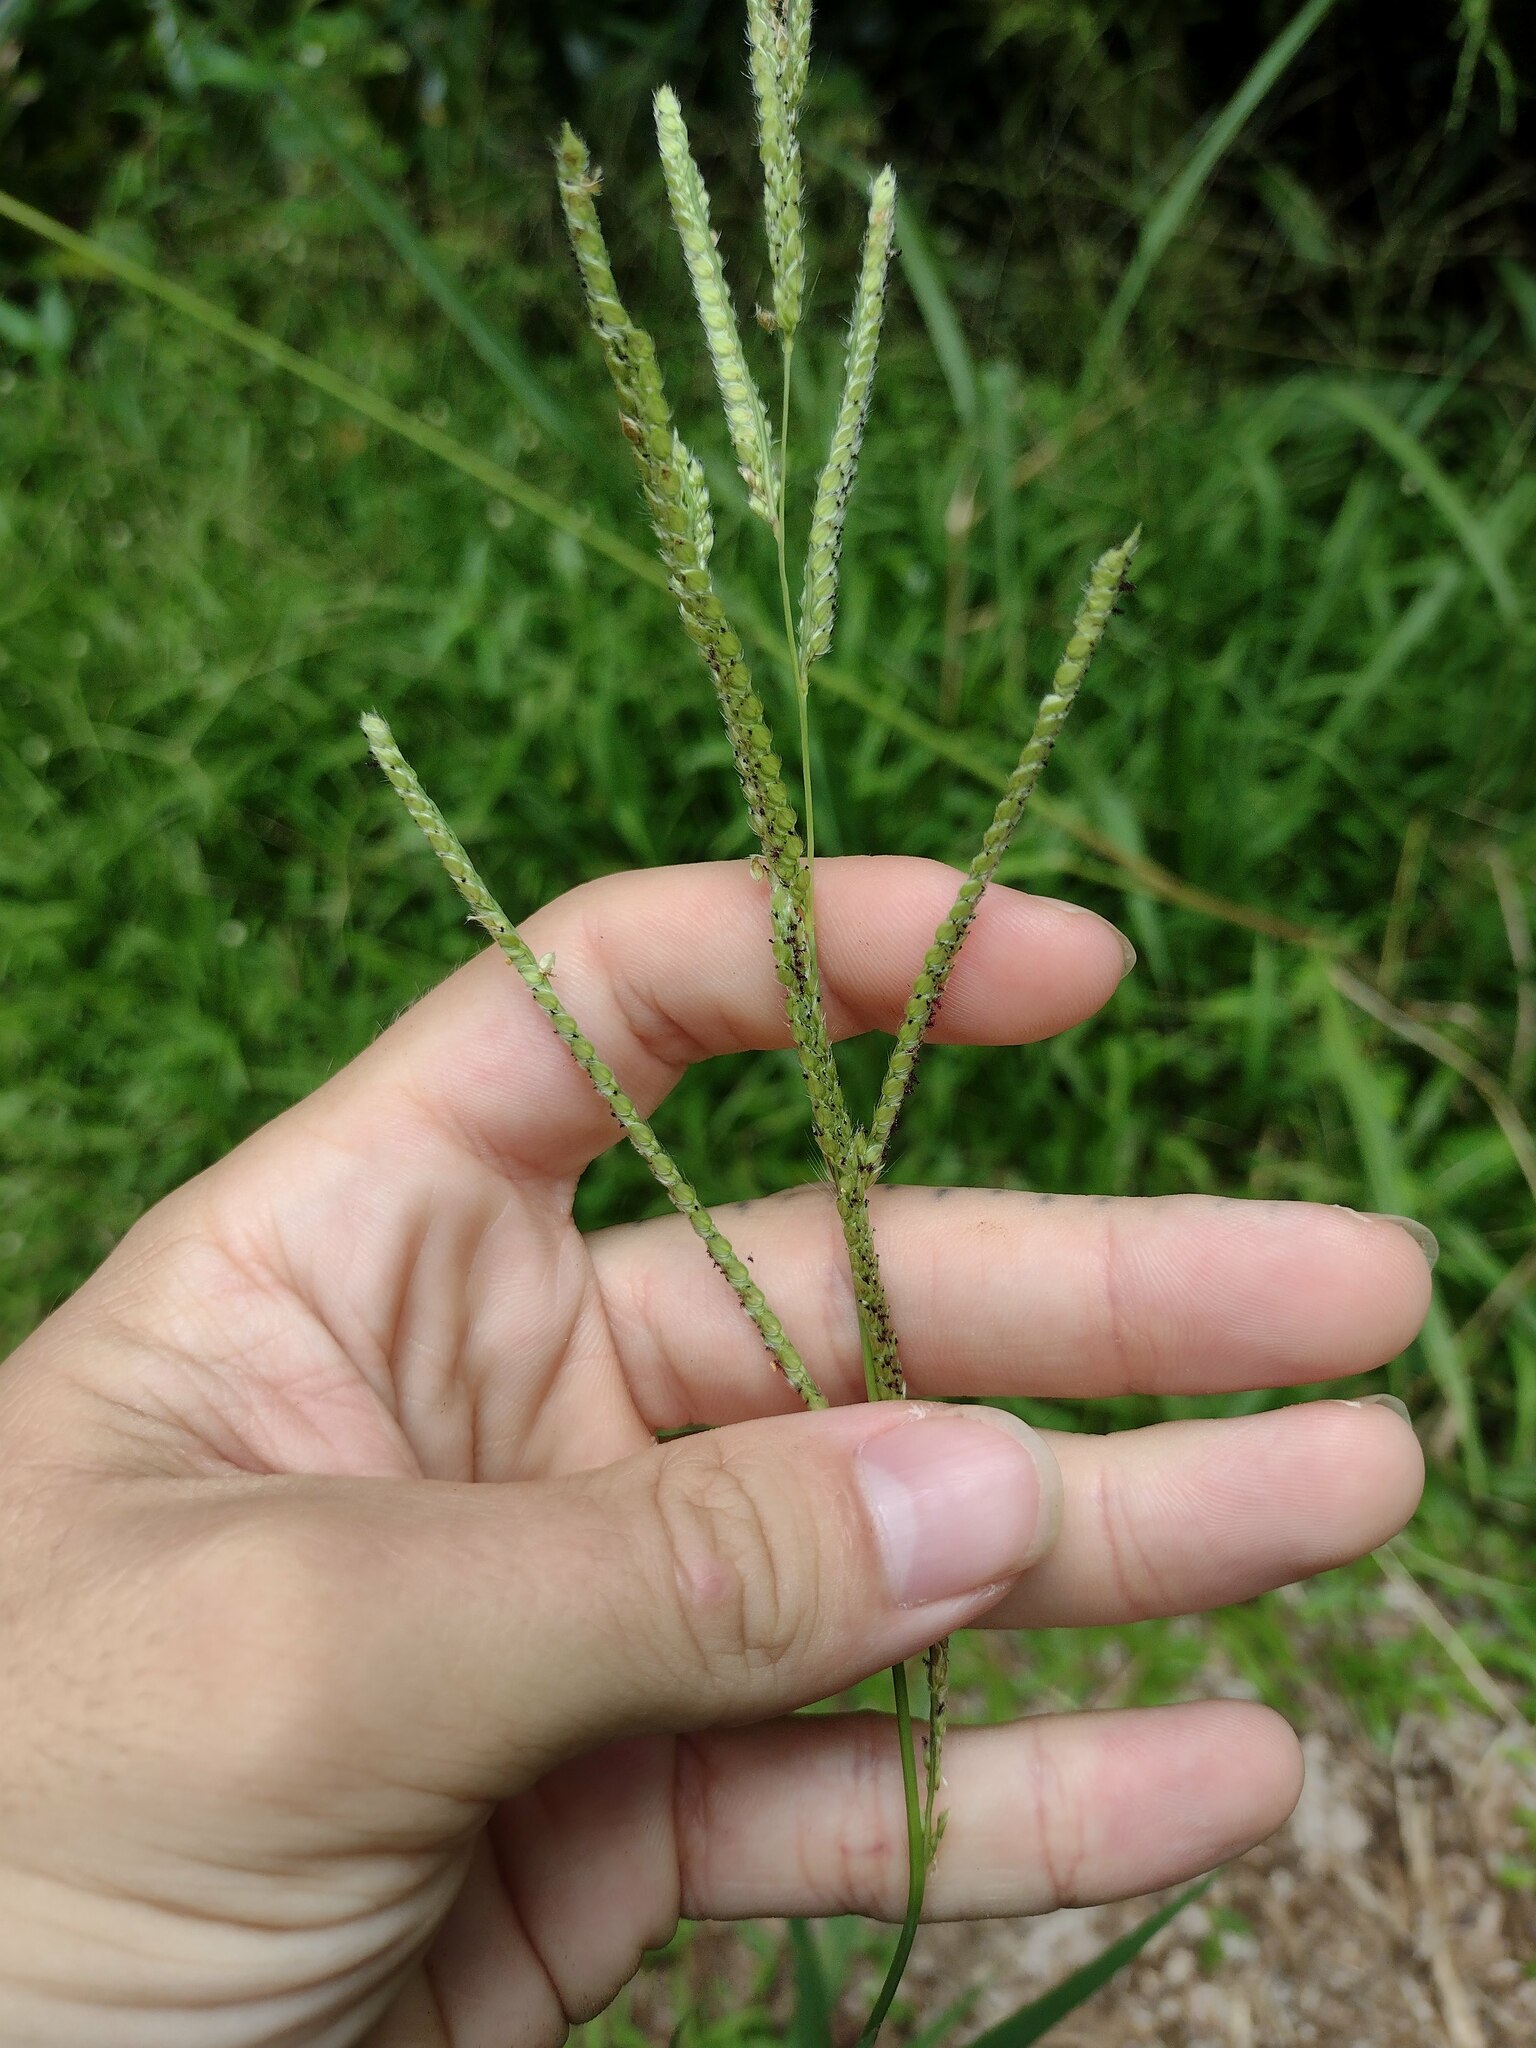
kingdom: Plantae
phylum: Tracheophyta
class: Liliopsida
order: Poales
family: Poaceae
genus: Paspalum
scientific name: Paspalum urvillei
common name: Vasey's grass
